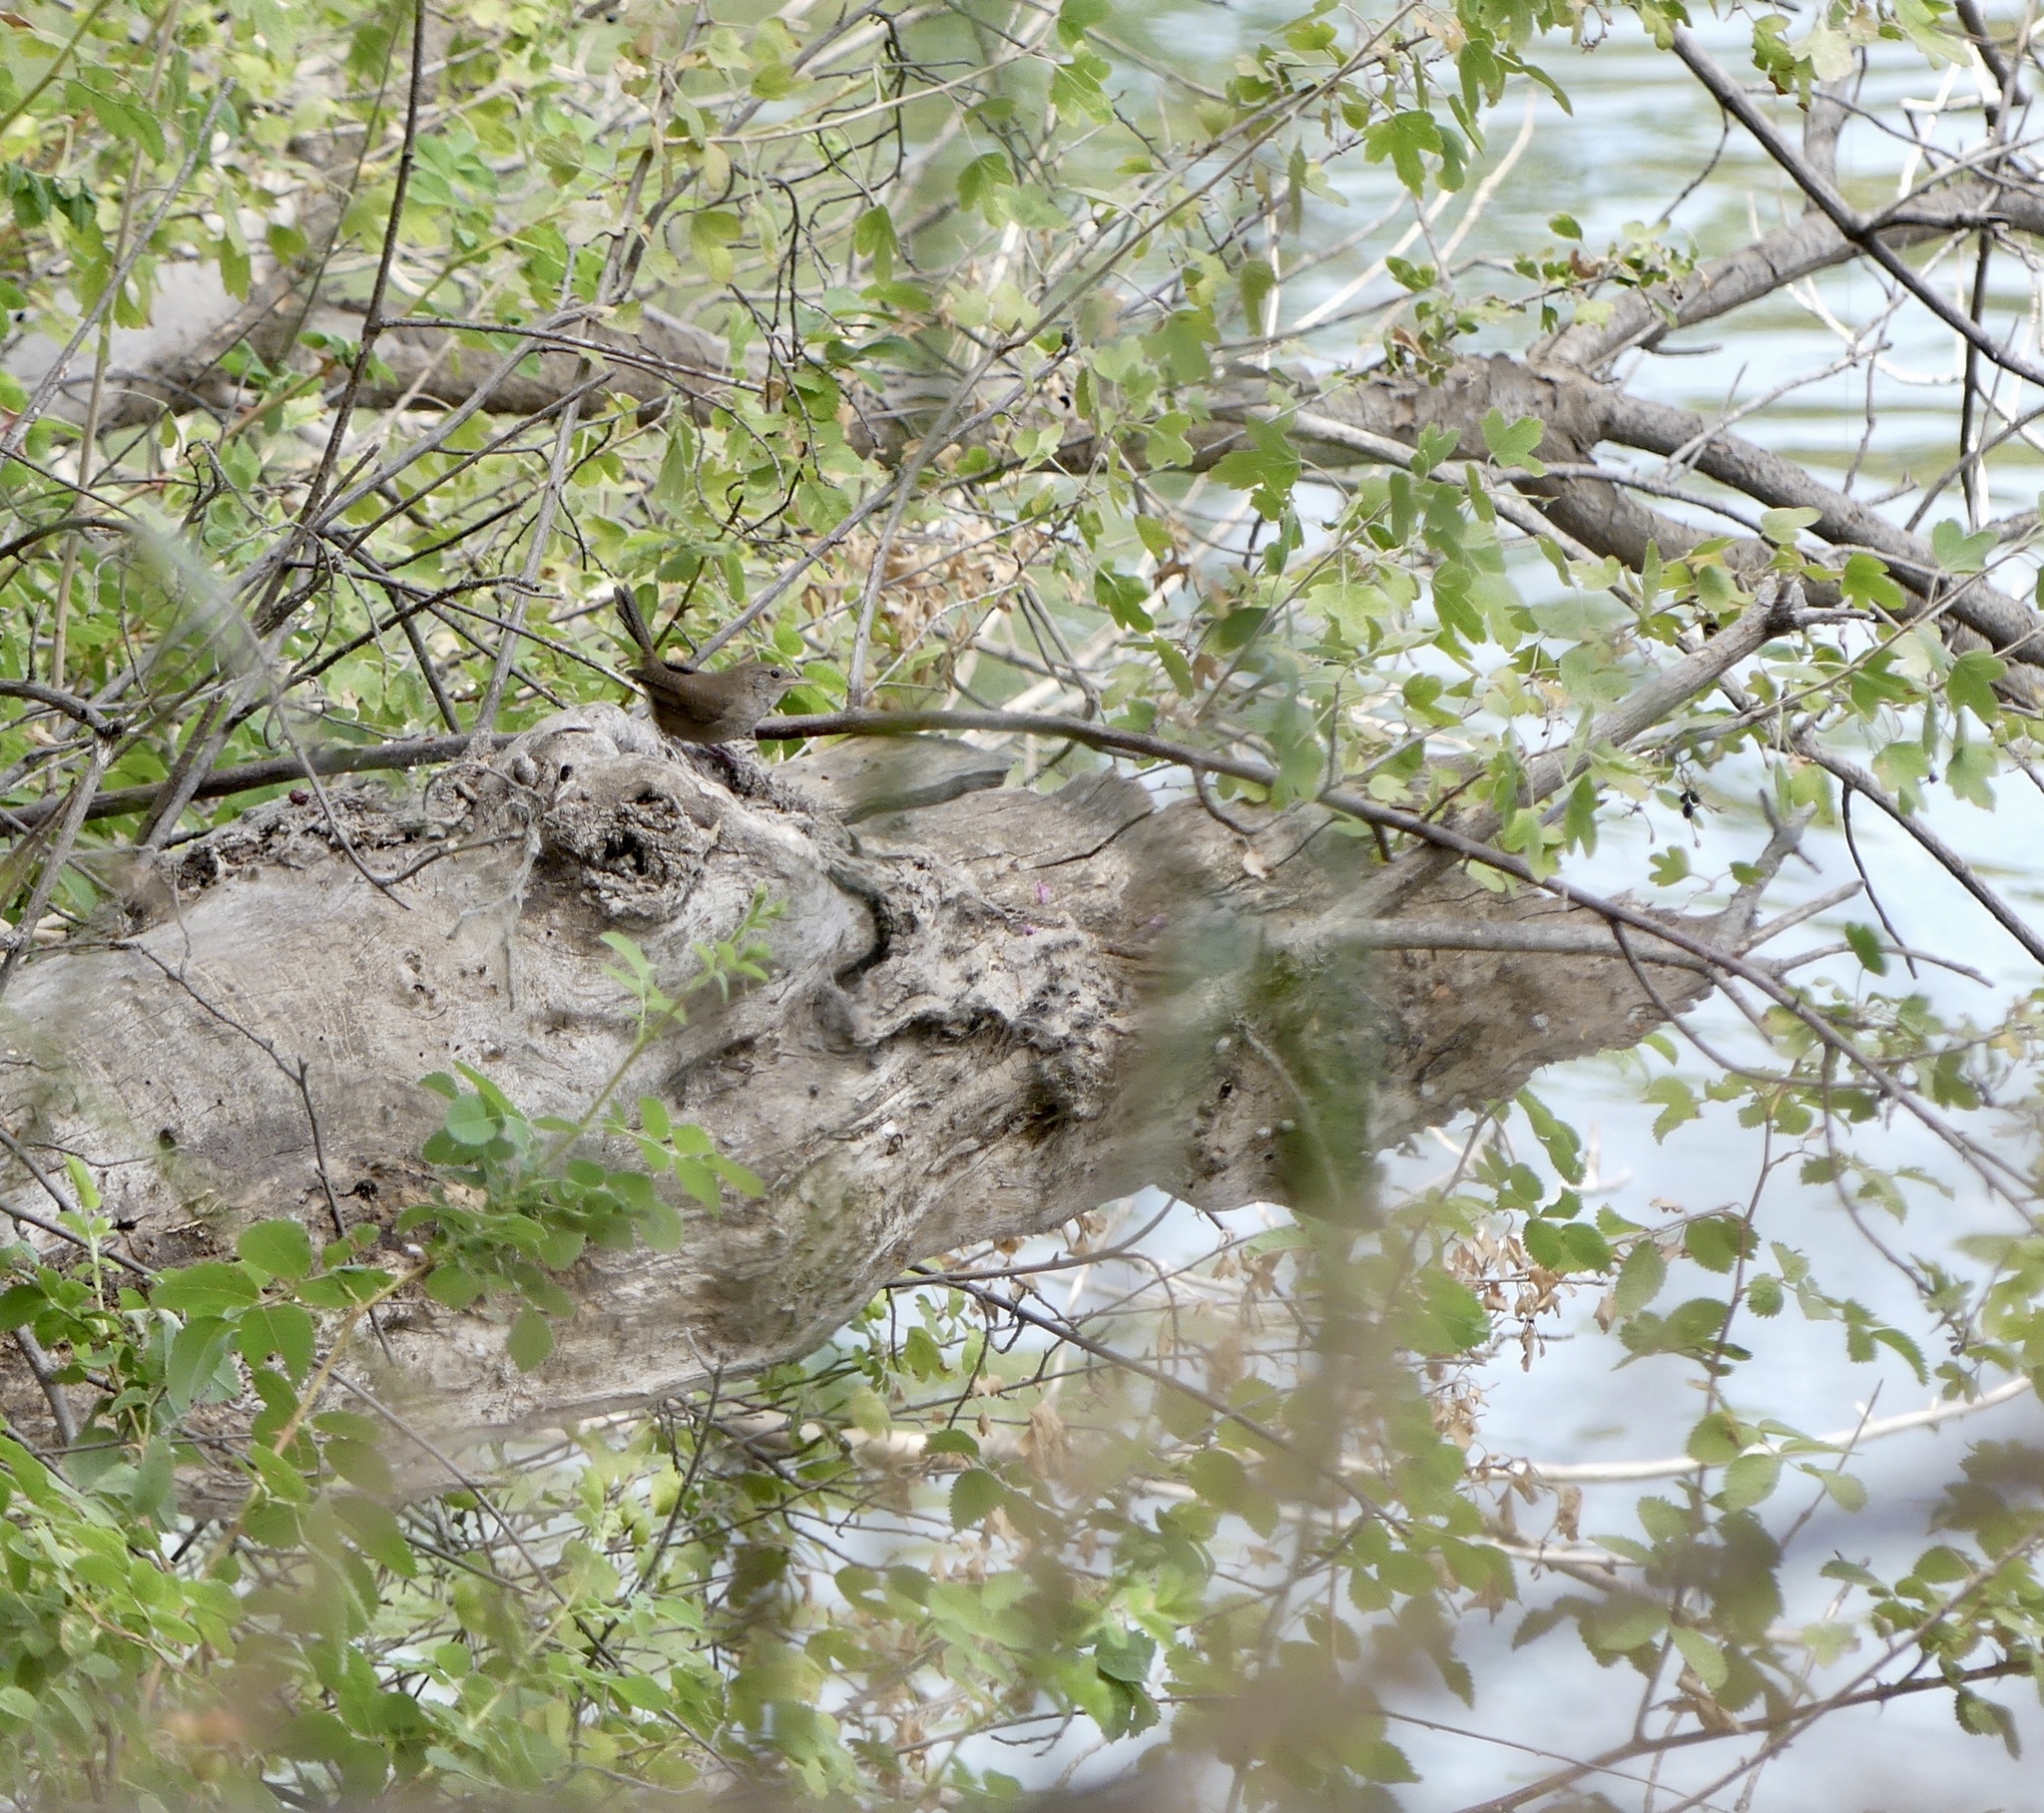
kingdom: Animalia
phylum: Chordata
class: Aves
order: Passeriformes
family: Troglodytidae
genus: Troglodytes
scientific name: Troglodytes aedon
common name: House wren
